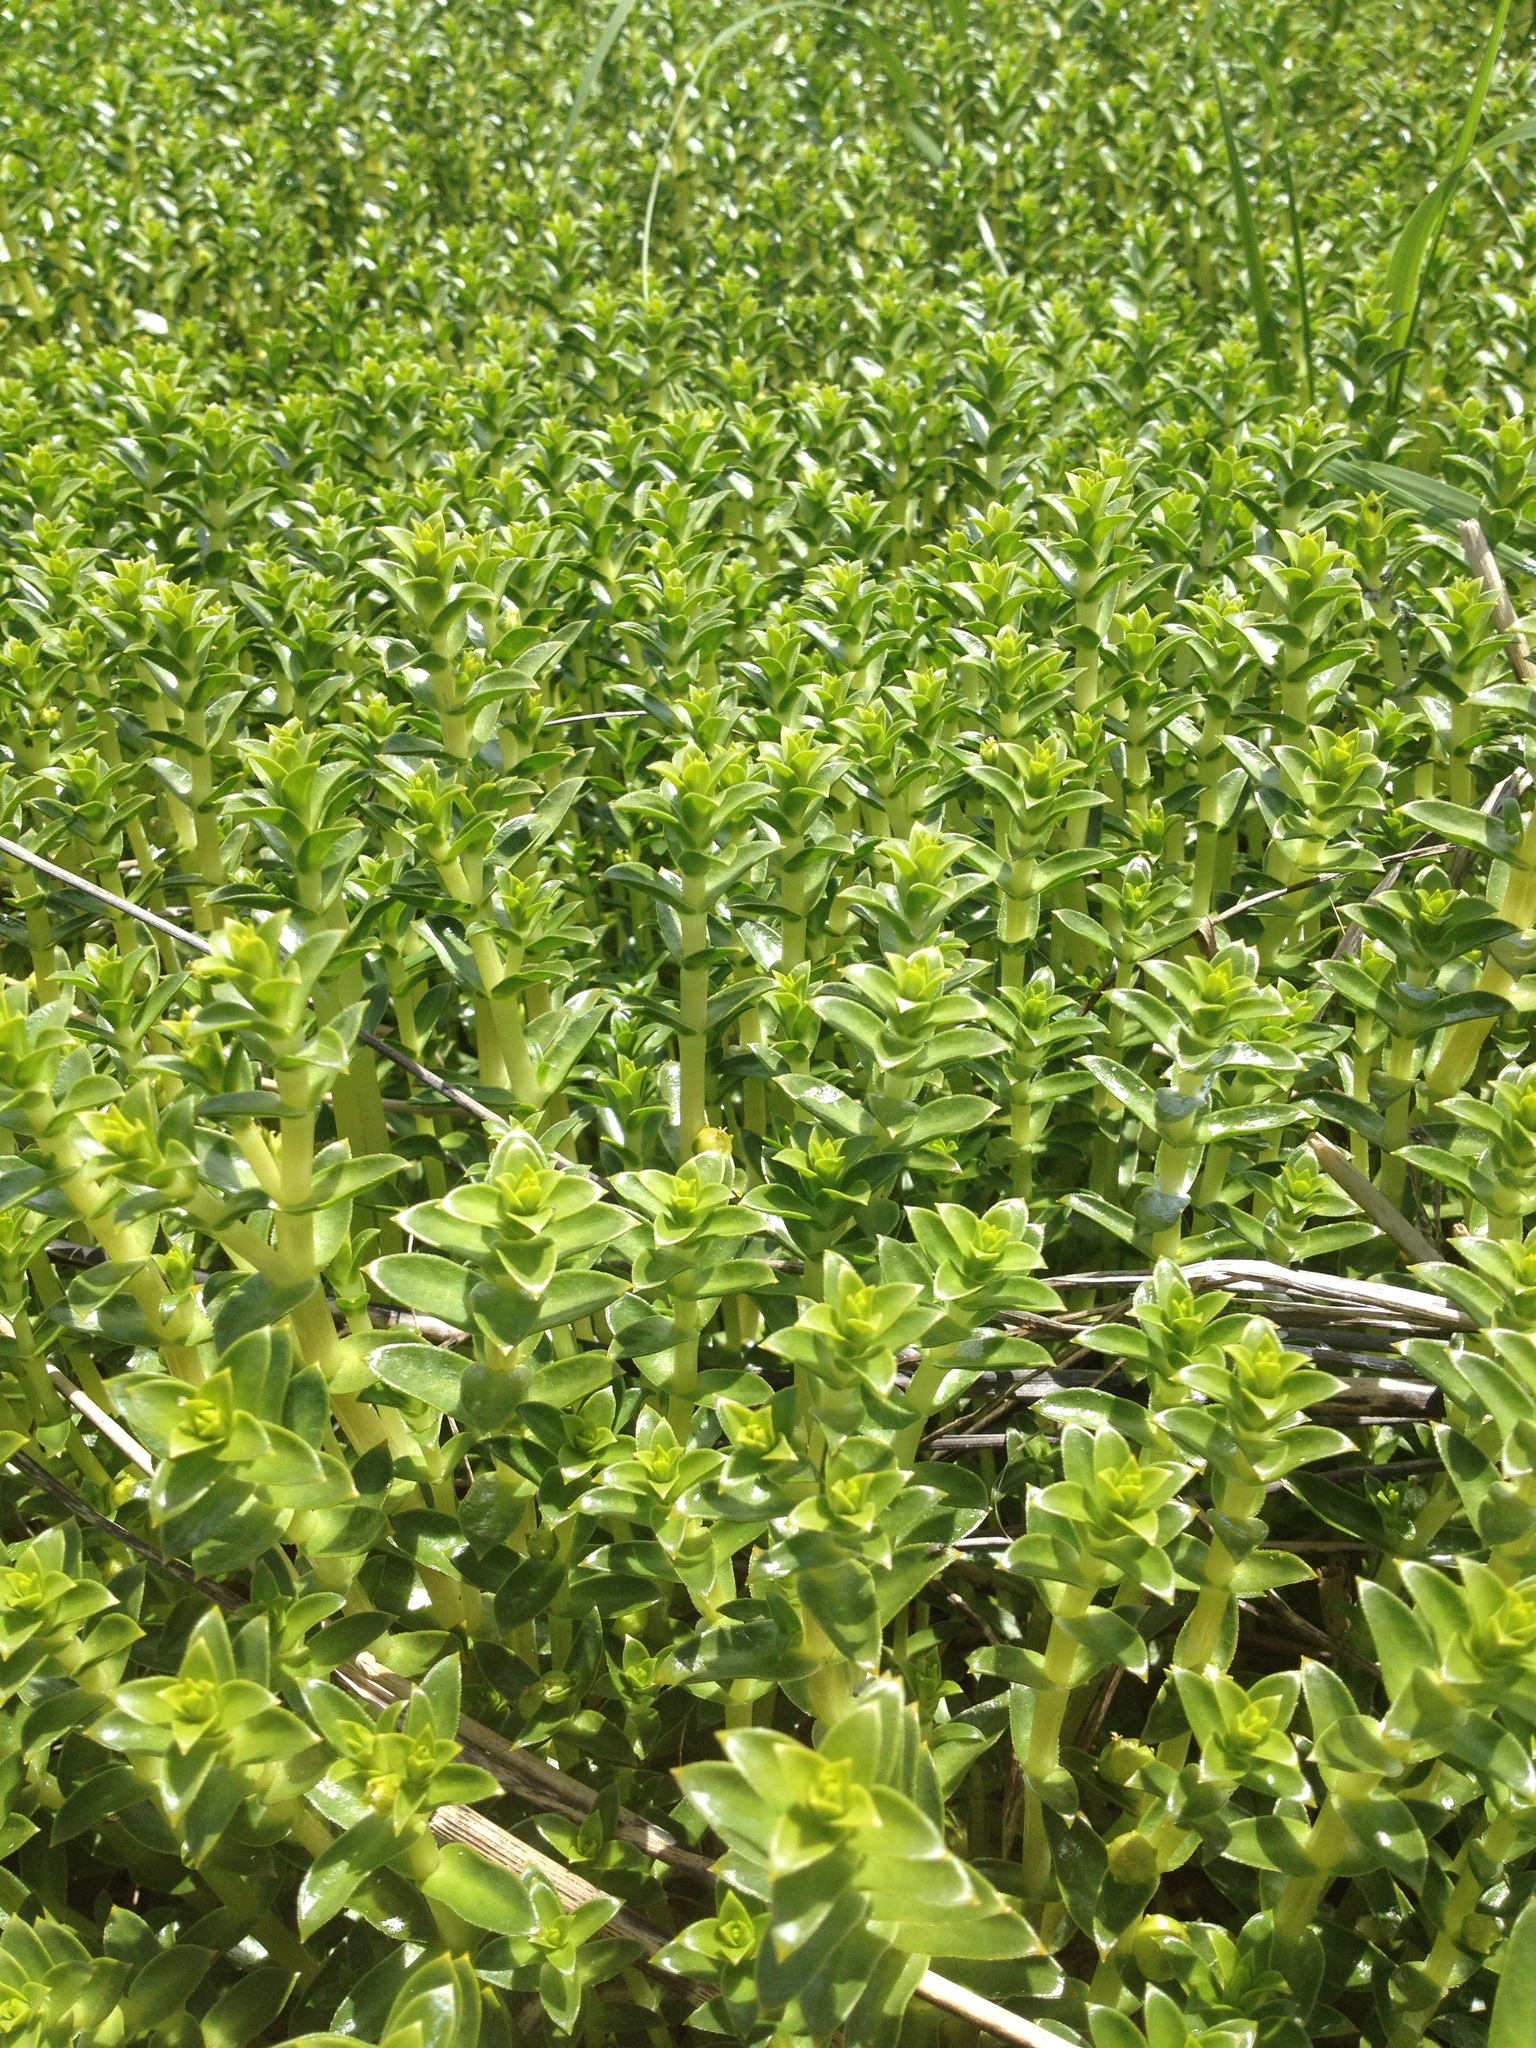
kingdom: Plantae
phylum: Tracheophyta
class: Magnoliopsida
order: Caryophyllales
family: Caryophyllaceae
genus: Honckenya
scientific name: Honckenya peploides
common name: Sea sandwort
